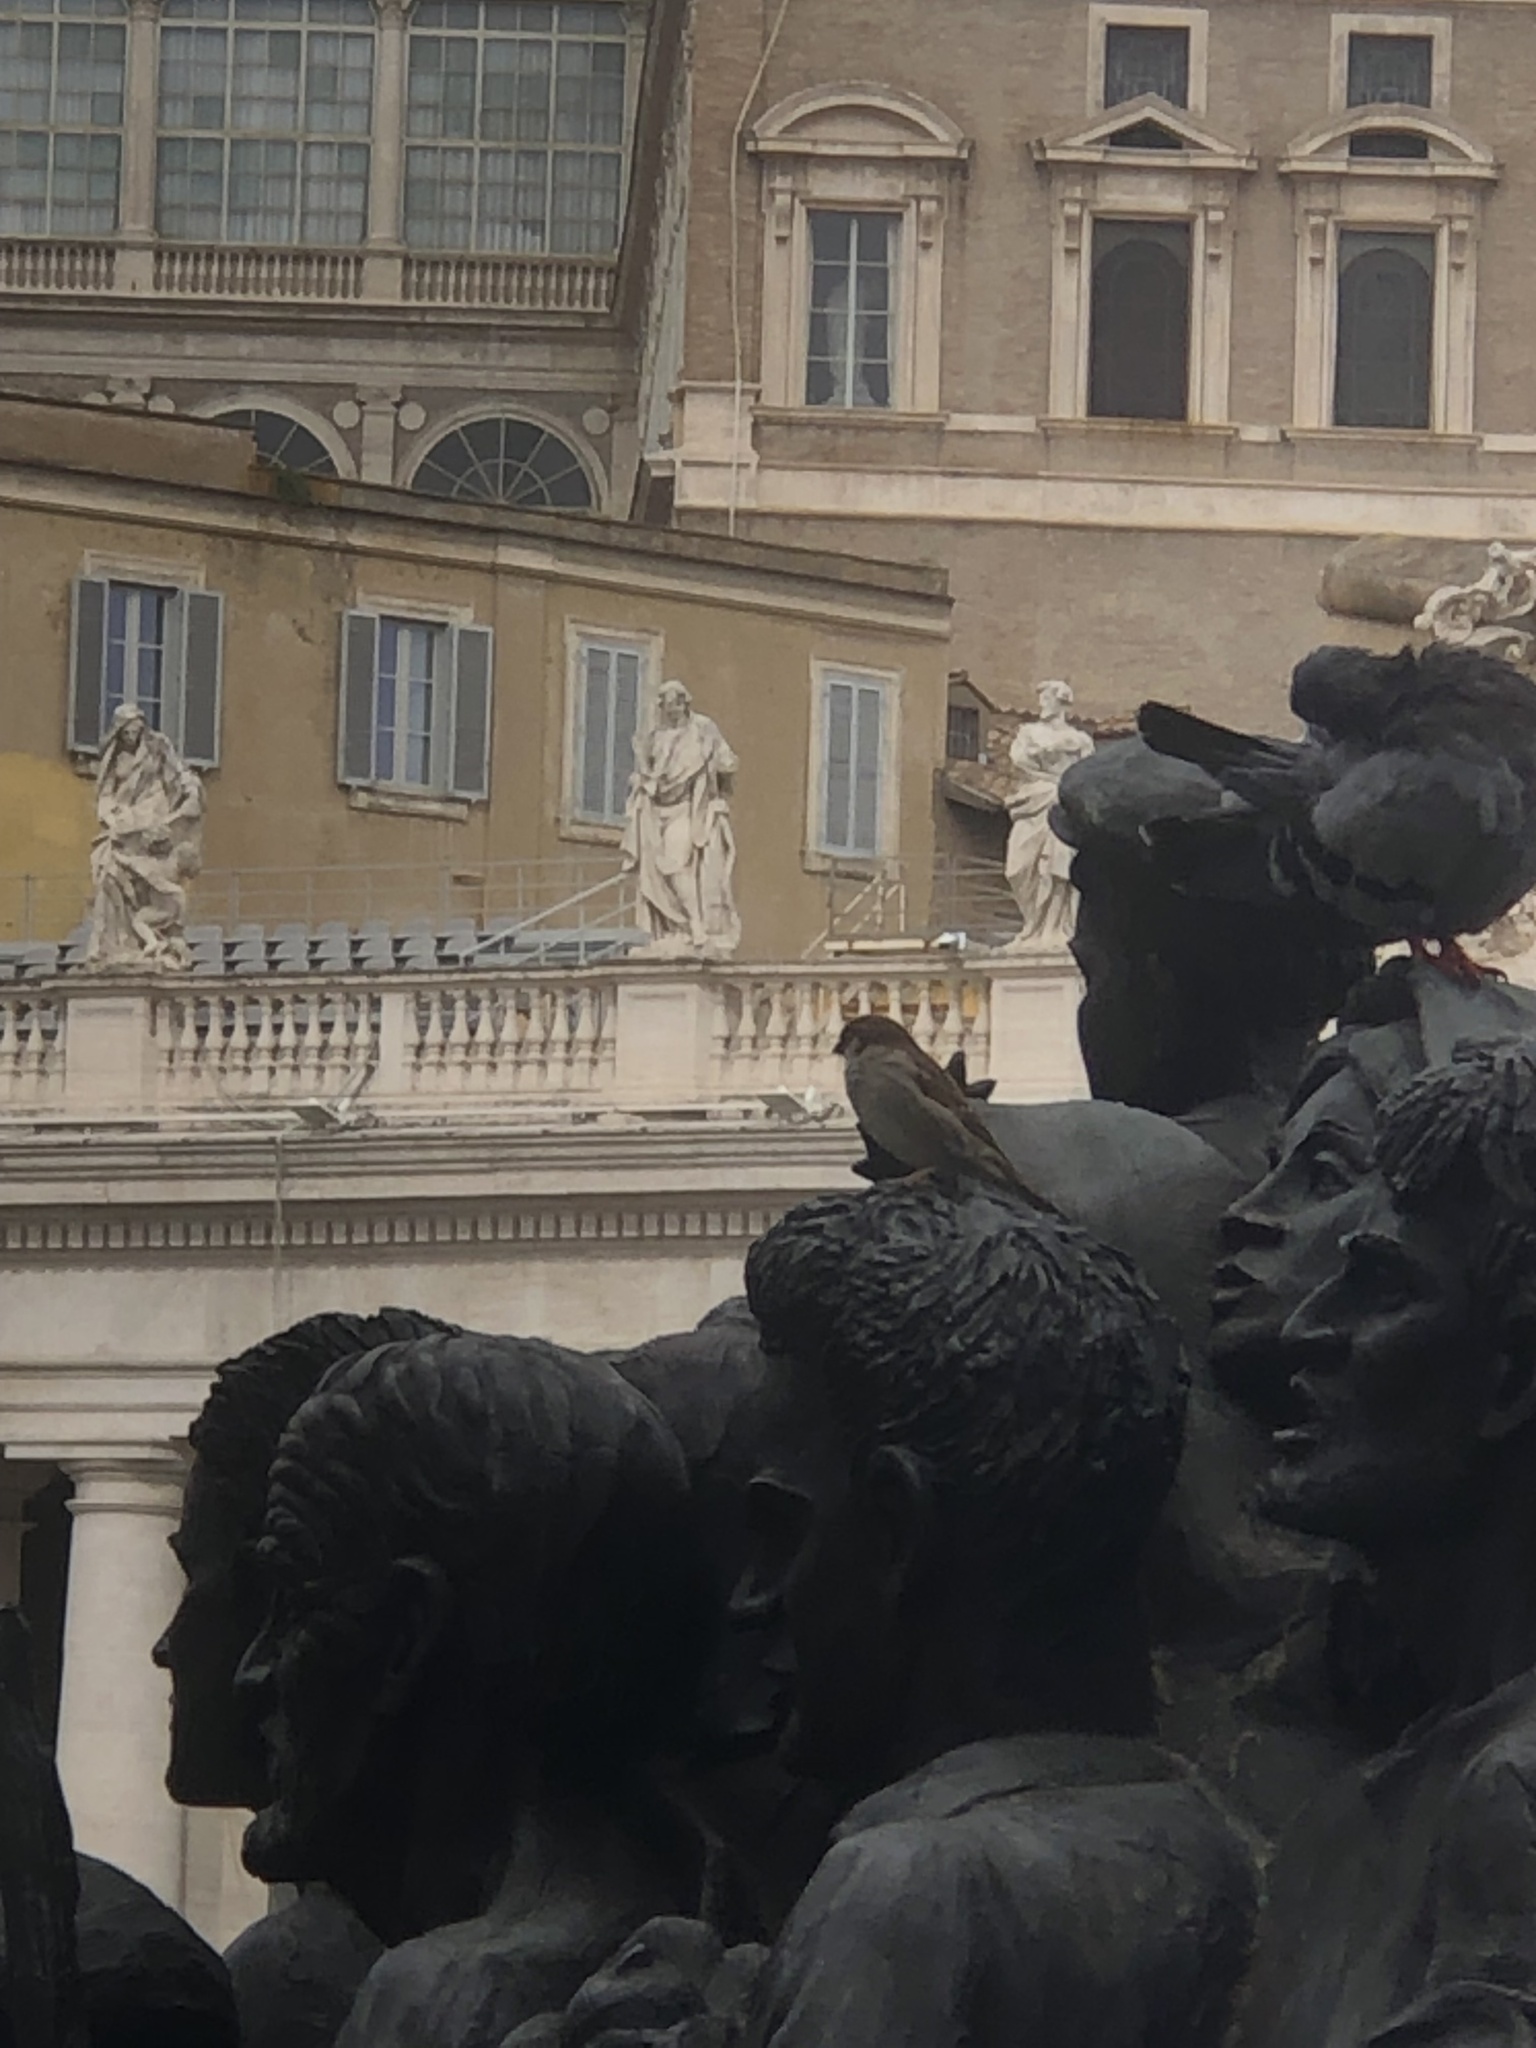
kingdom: Animalia
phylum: Chordata
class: Aves
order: Passeriformes
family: Passeridae
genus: Passer
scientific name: Passer italiae
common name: Italian sparrow
